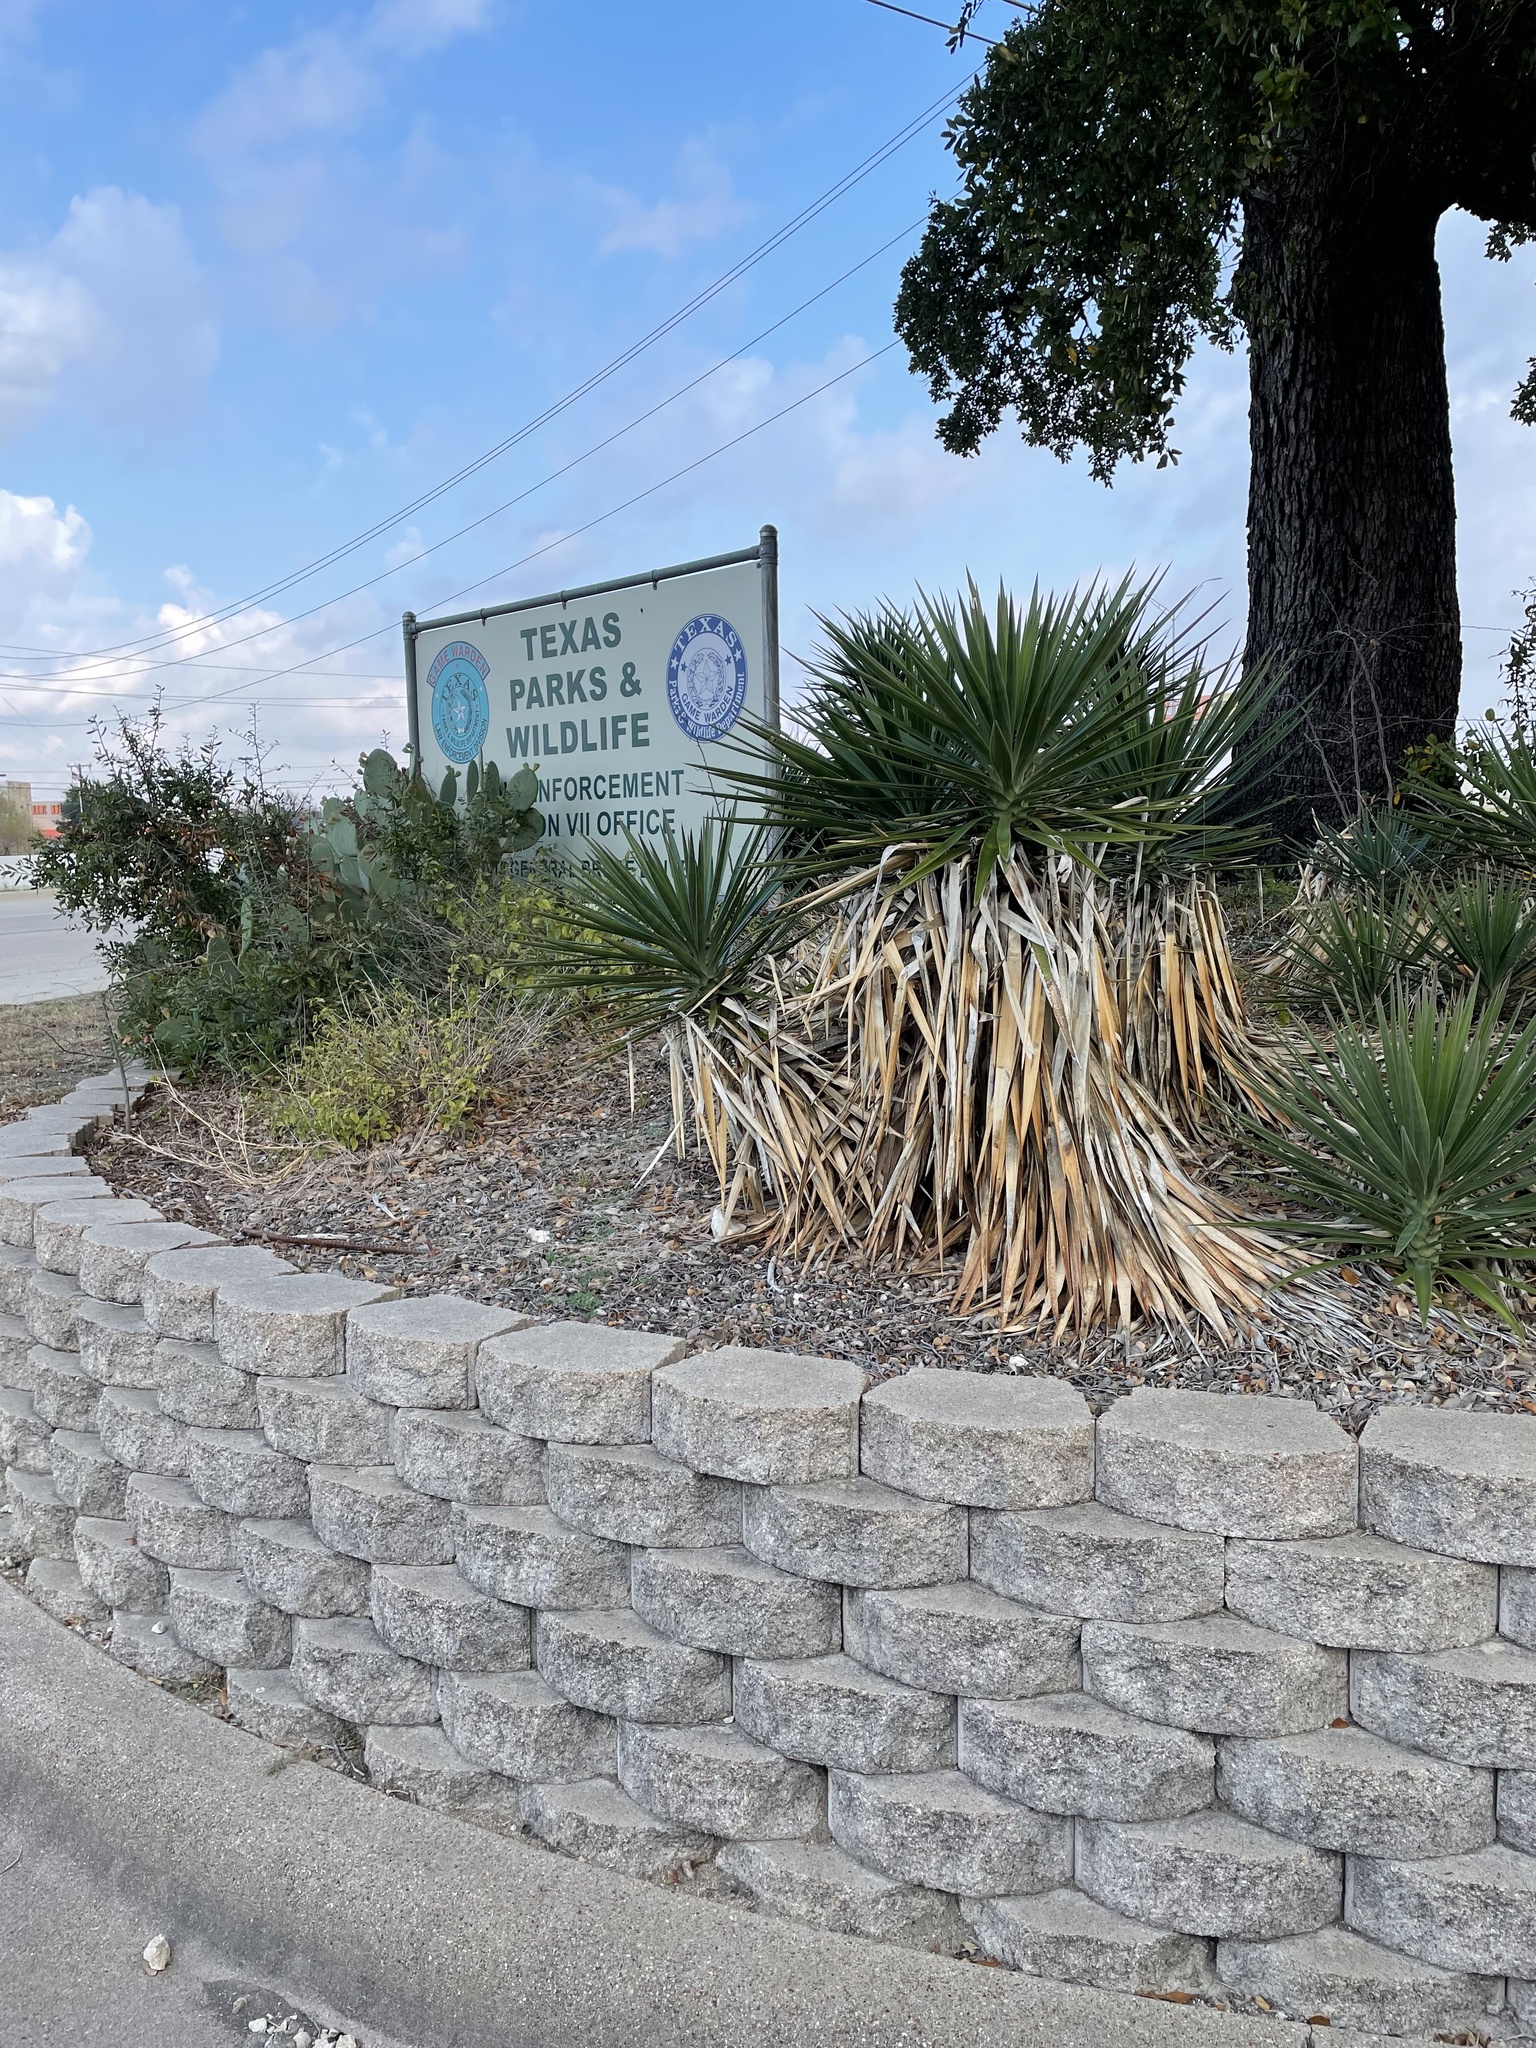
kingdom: Plantae
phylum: Tracheophyta
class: Liliopsida
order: Asparagales
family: Asparagaceae
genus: Yucca
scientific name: Yucca aloifolia
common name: Aloe yucca
